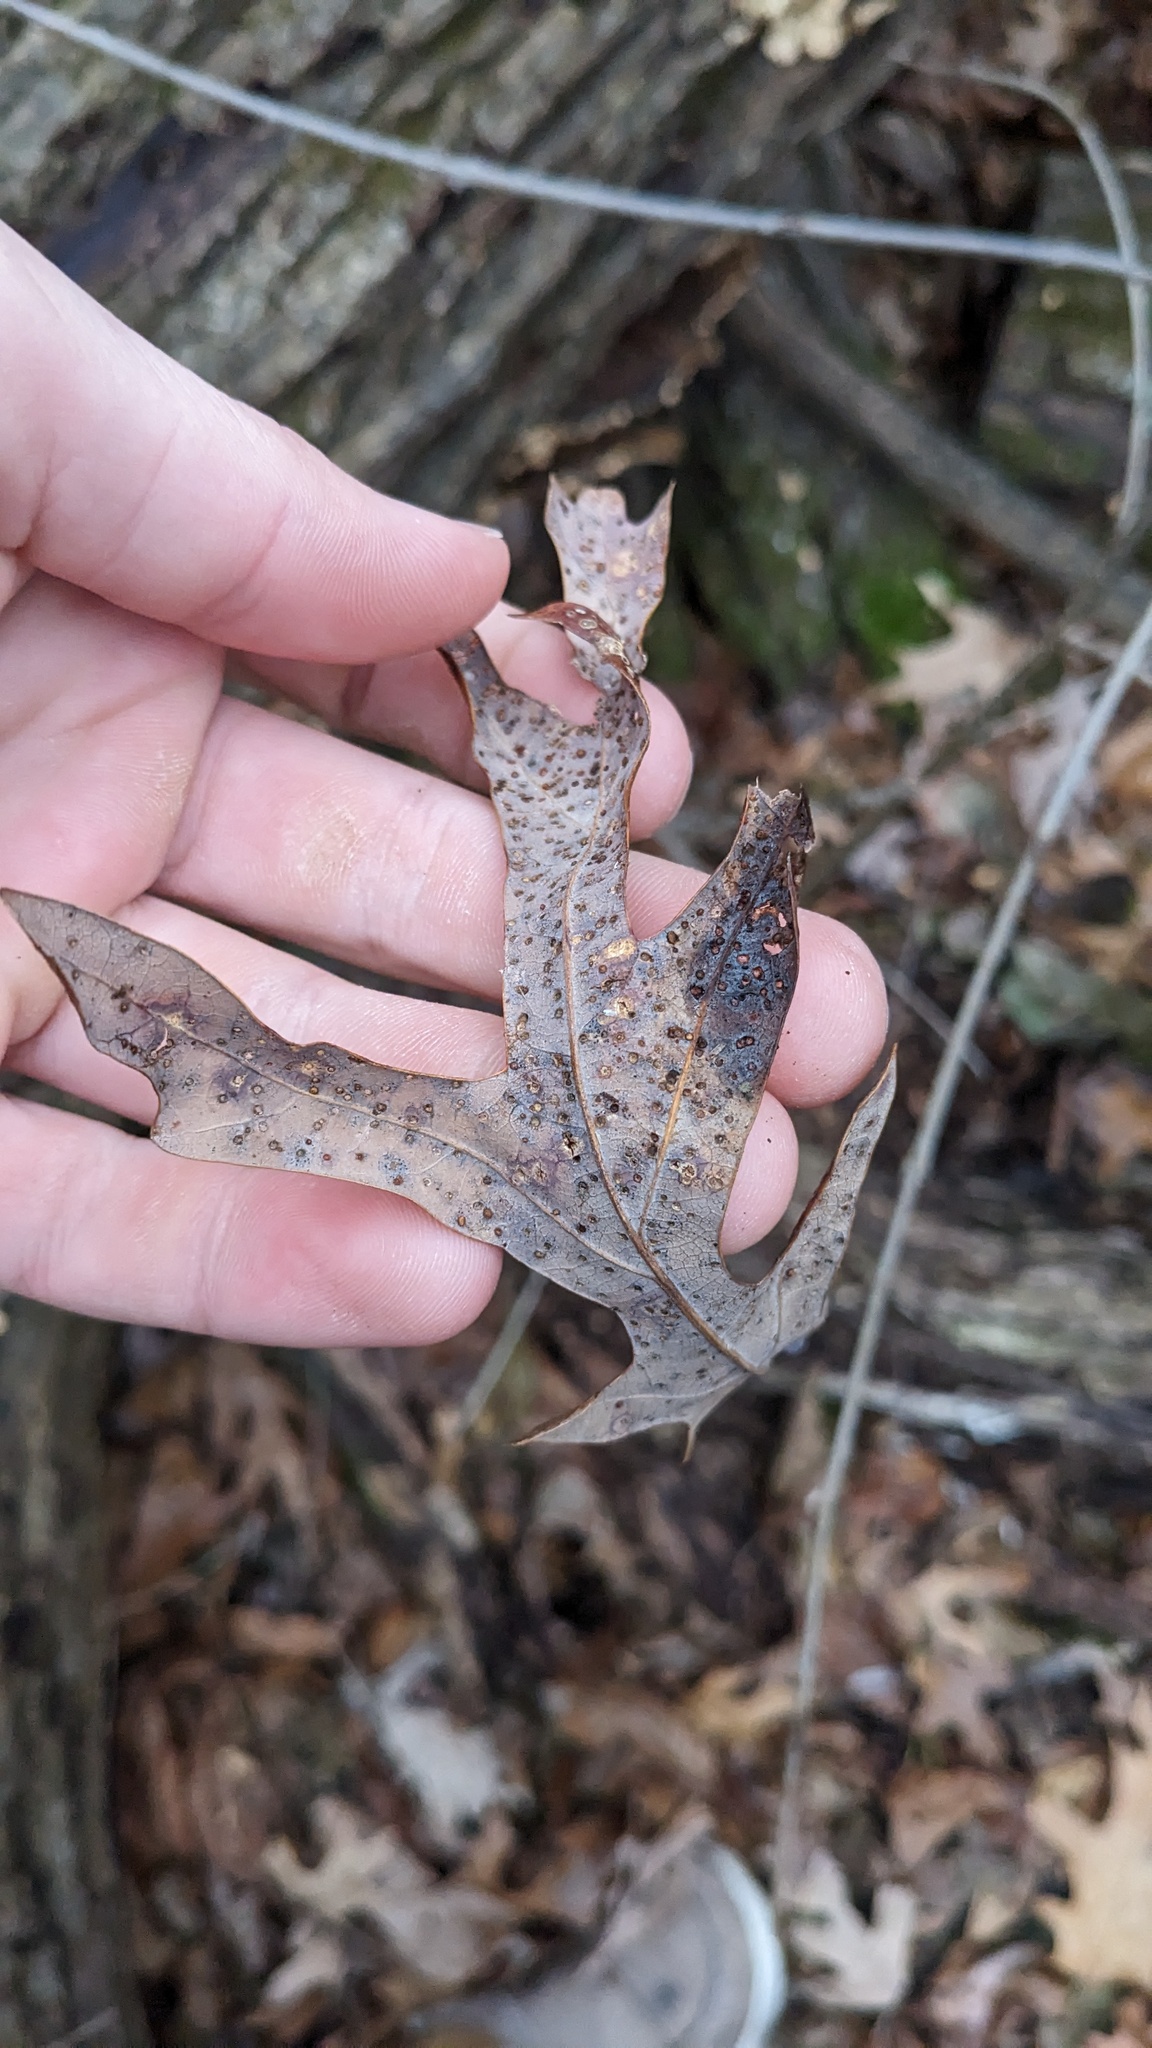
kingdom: Animalia
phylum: Arthropoda
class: Insecta
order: Hymenoptera
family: Cynipidae
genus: Neuroterus
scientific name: Neuroterus
